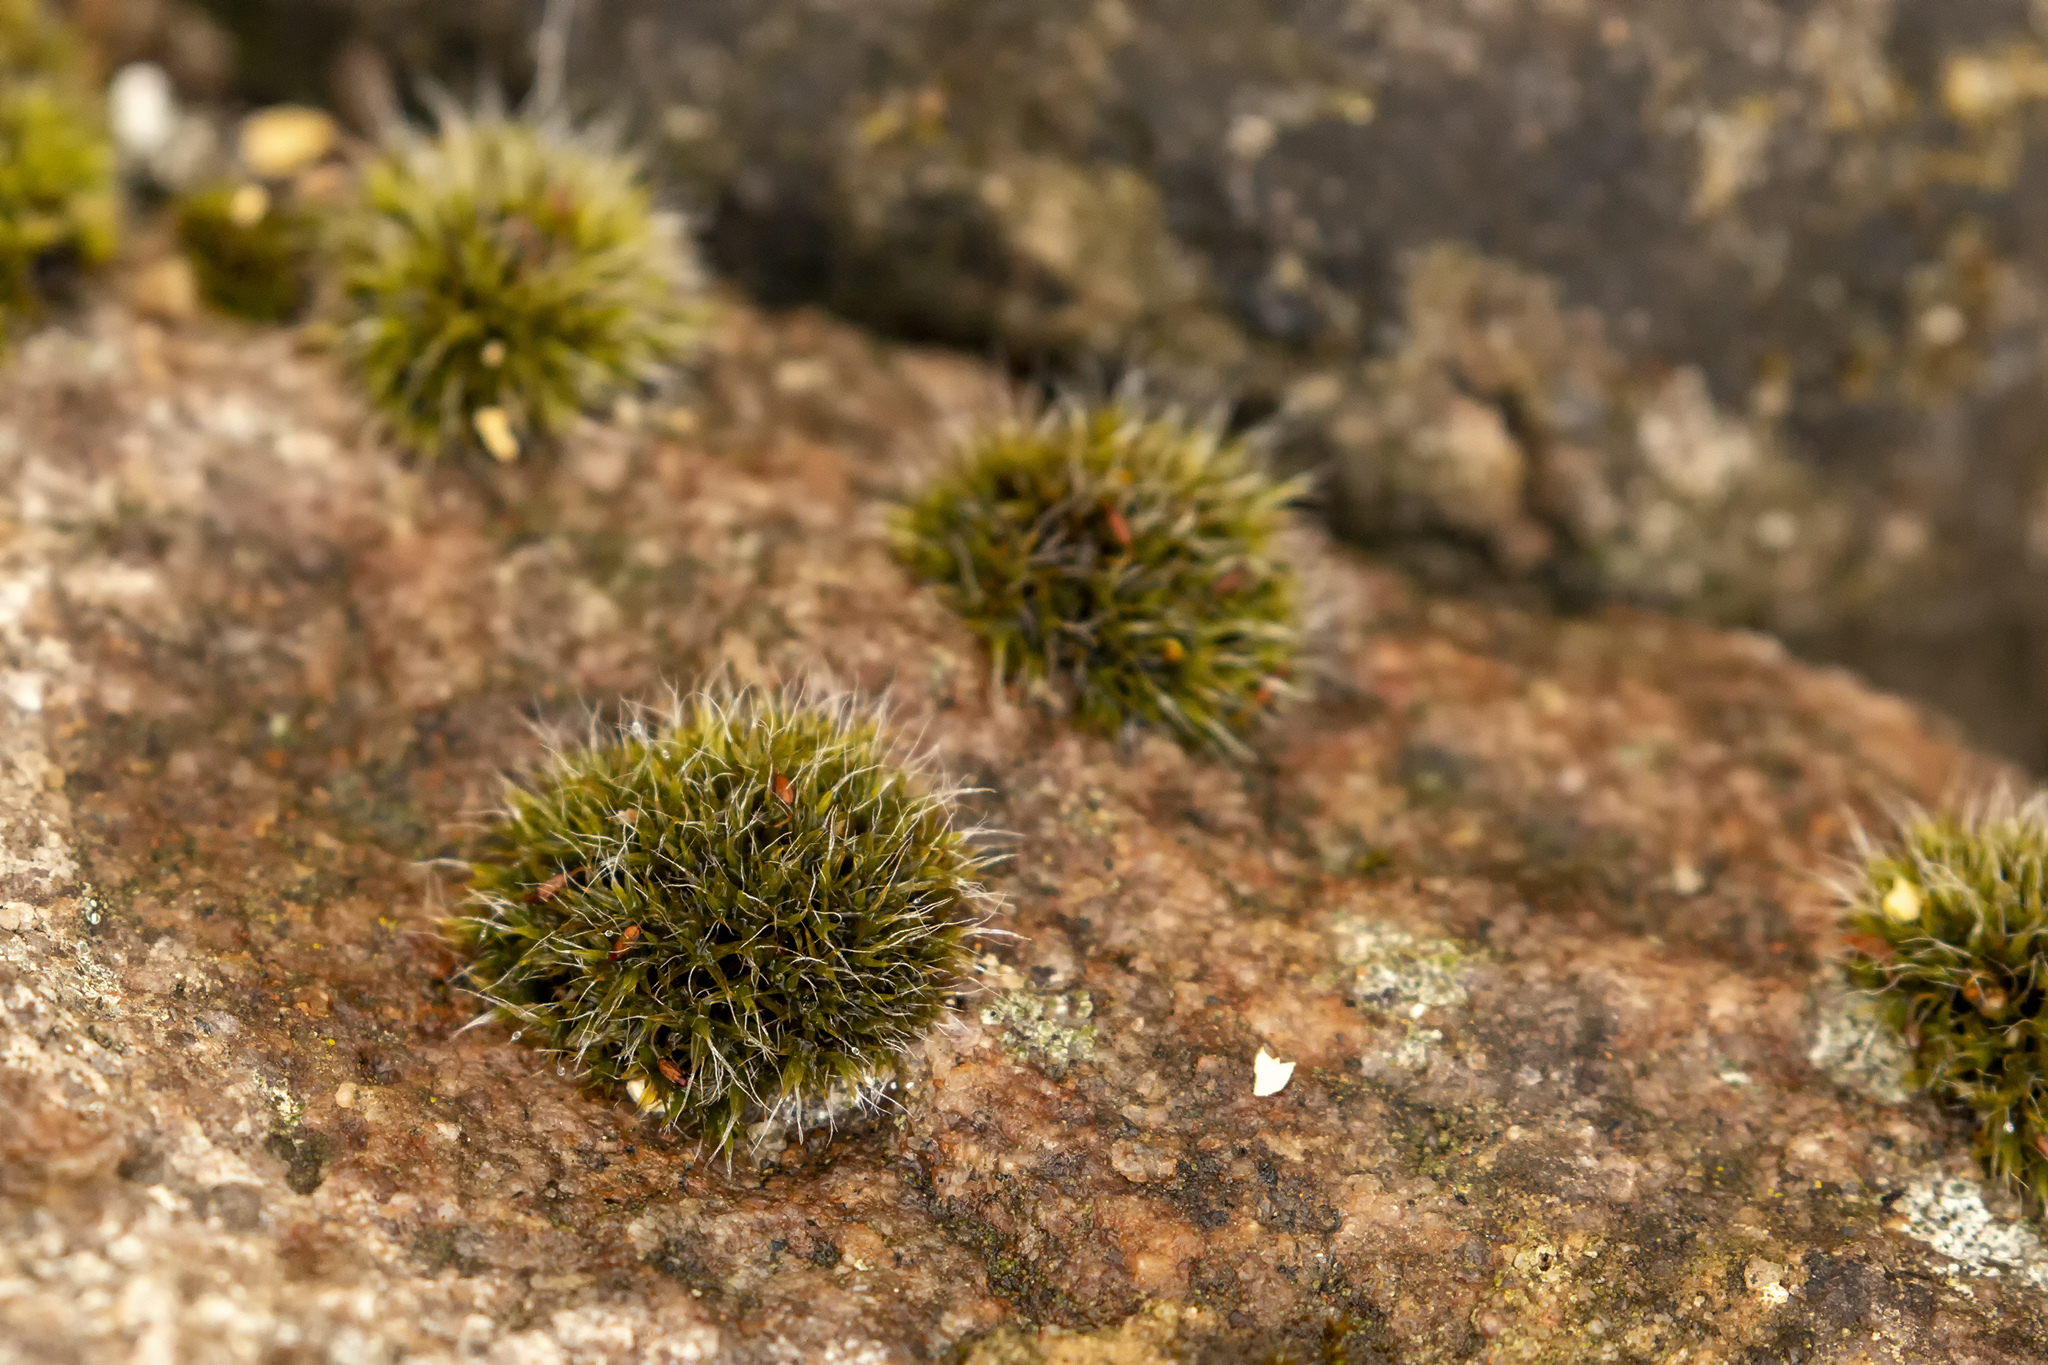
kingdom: Plantae
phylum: Bryophyta
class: Bryopsida
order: Grimmiales
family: Grimmiaceae
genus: Grimmia
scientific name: Grimmia pulvinata
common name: Grey-cushioned grimmia
